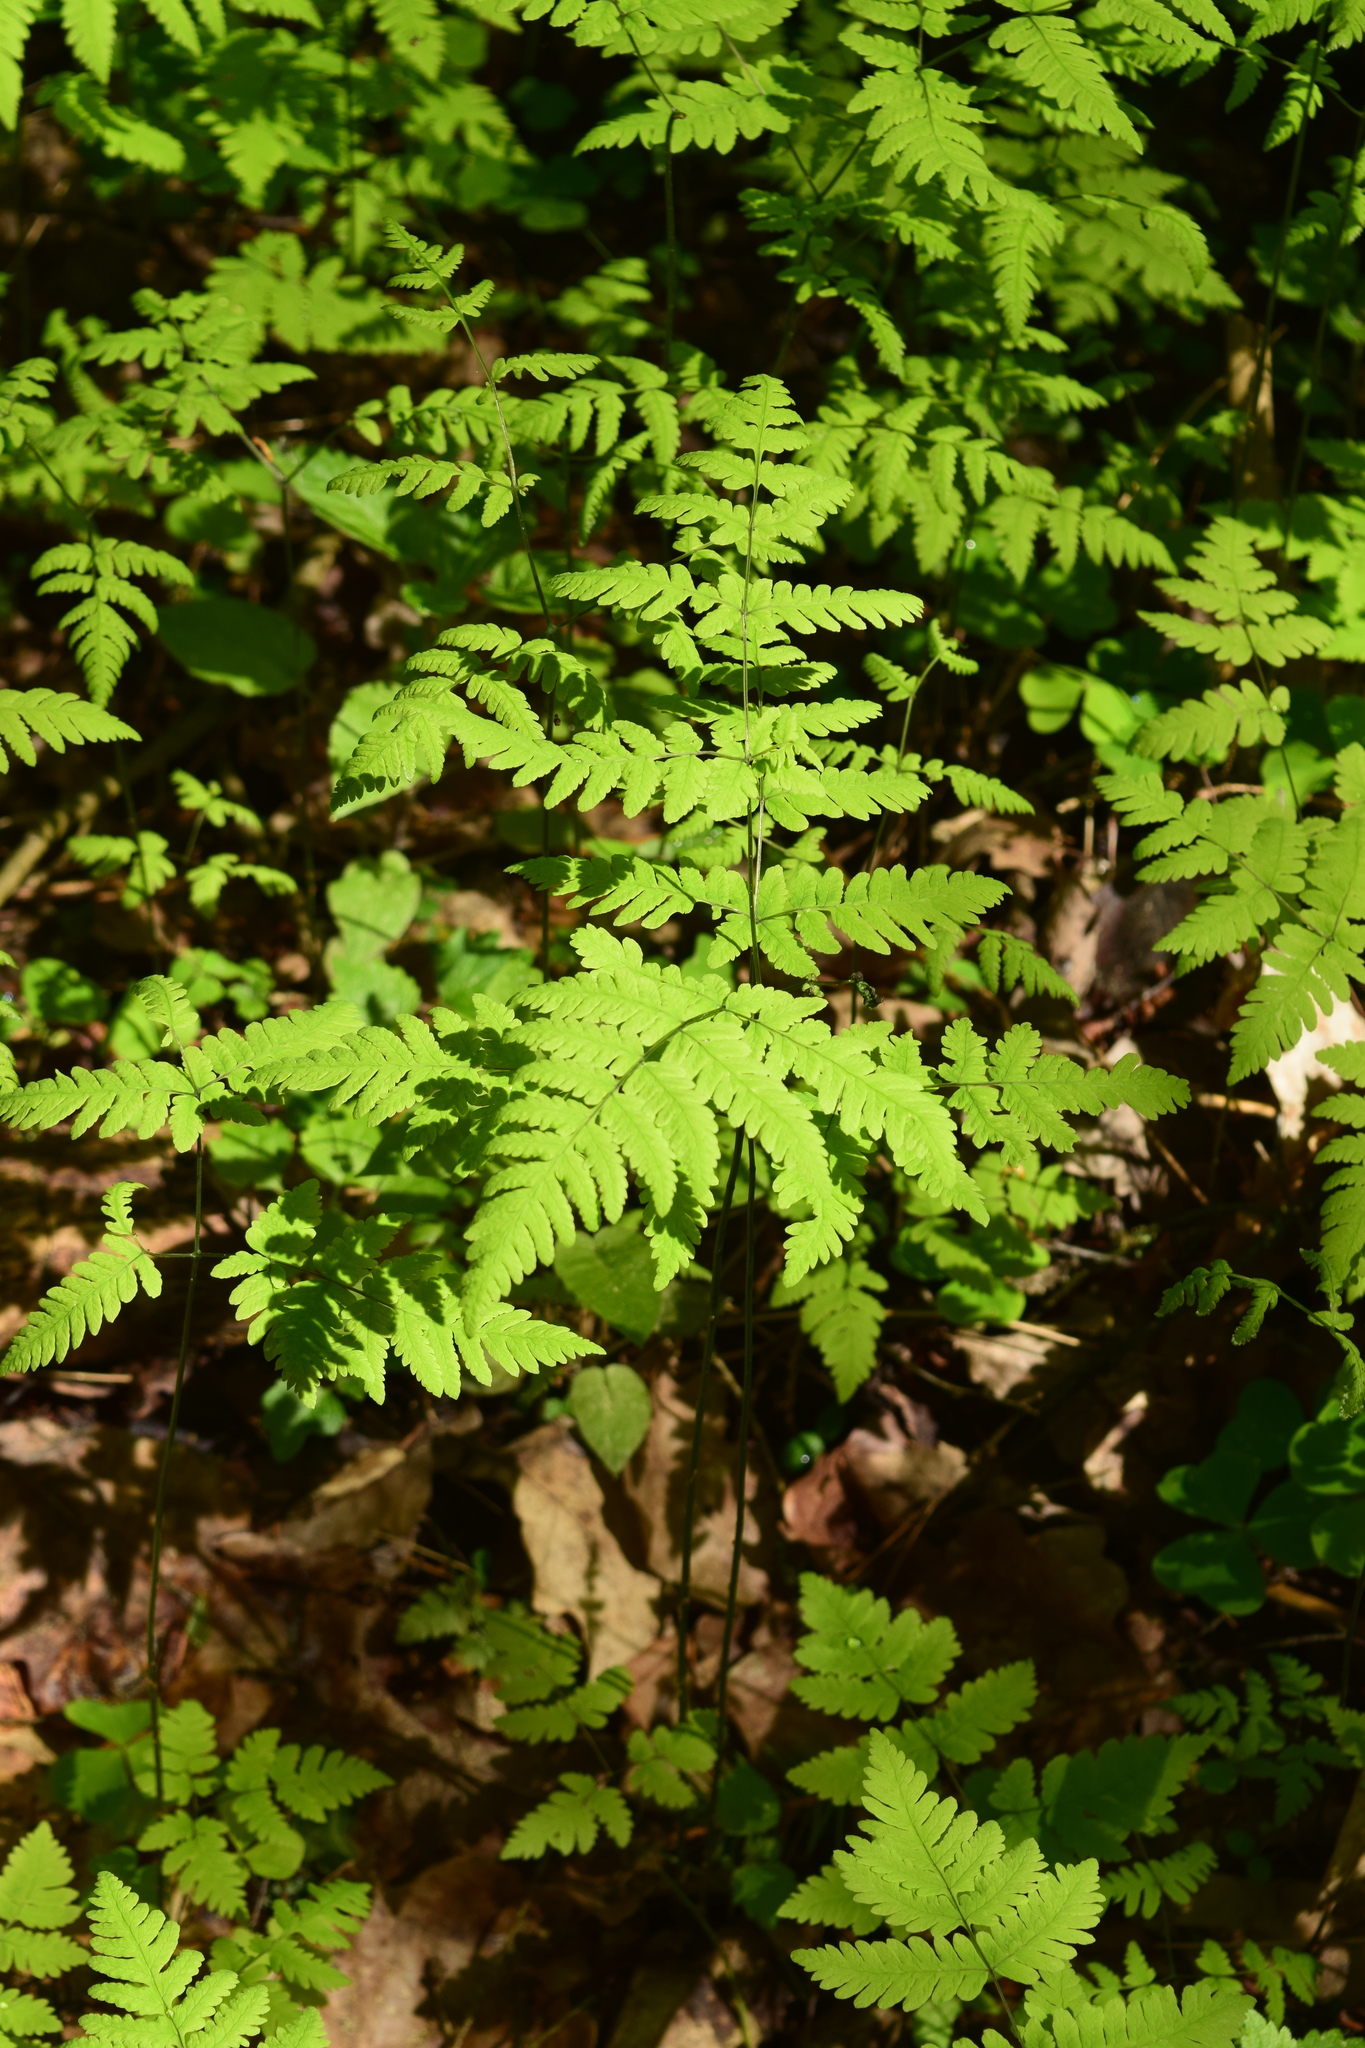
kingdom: Plantae
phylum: Tracheophyta
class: Polypodiopsida
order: Polypodiales
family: Cystopteridaceae
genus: Gymnocarpium
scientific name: Gymnocarpium dryopteris
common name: Oak fern
